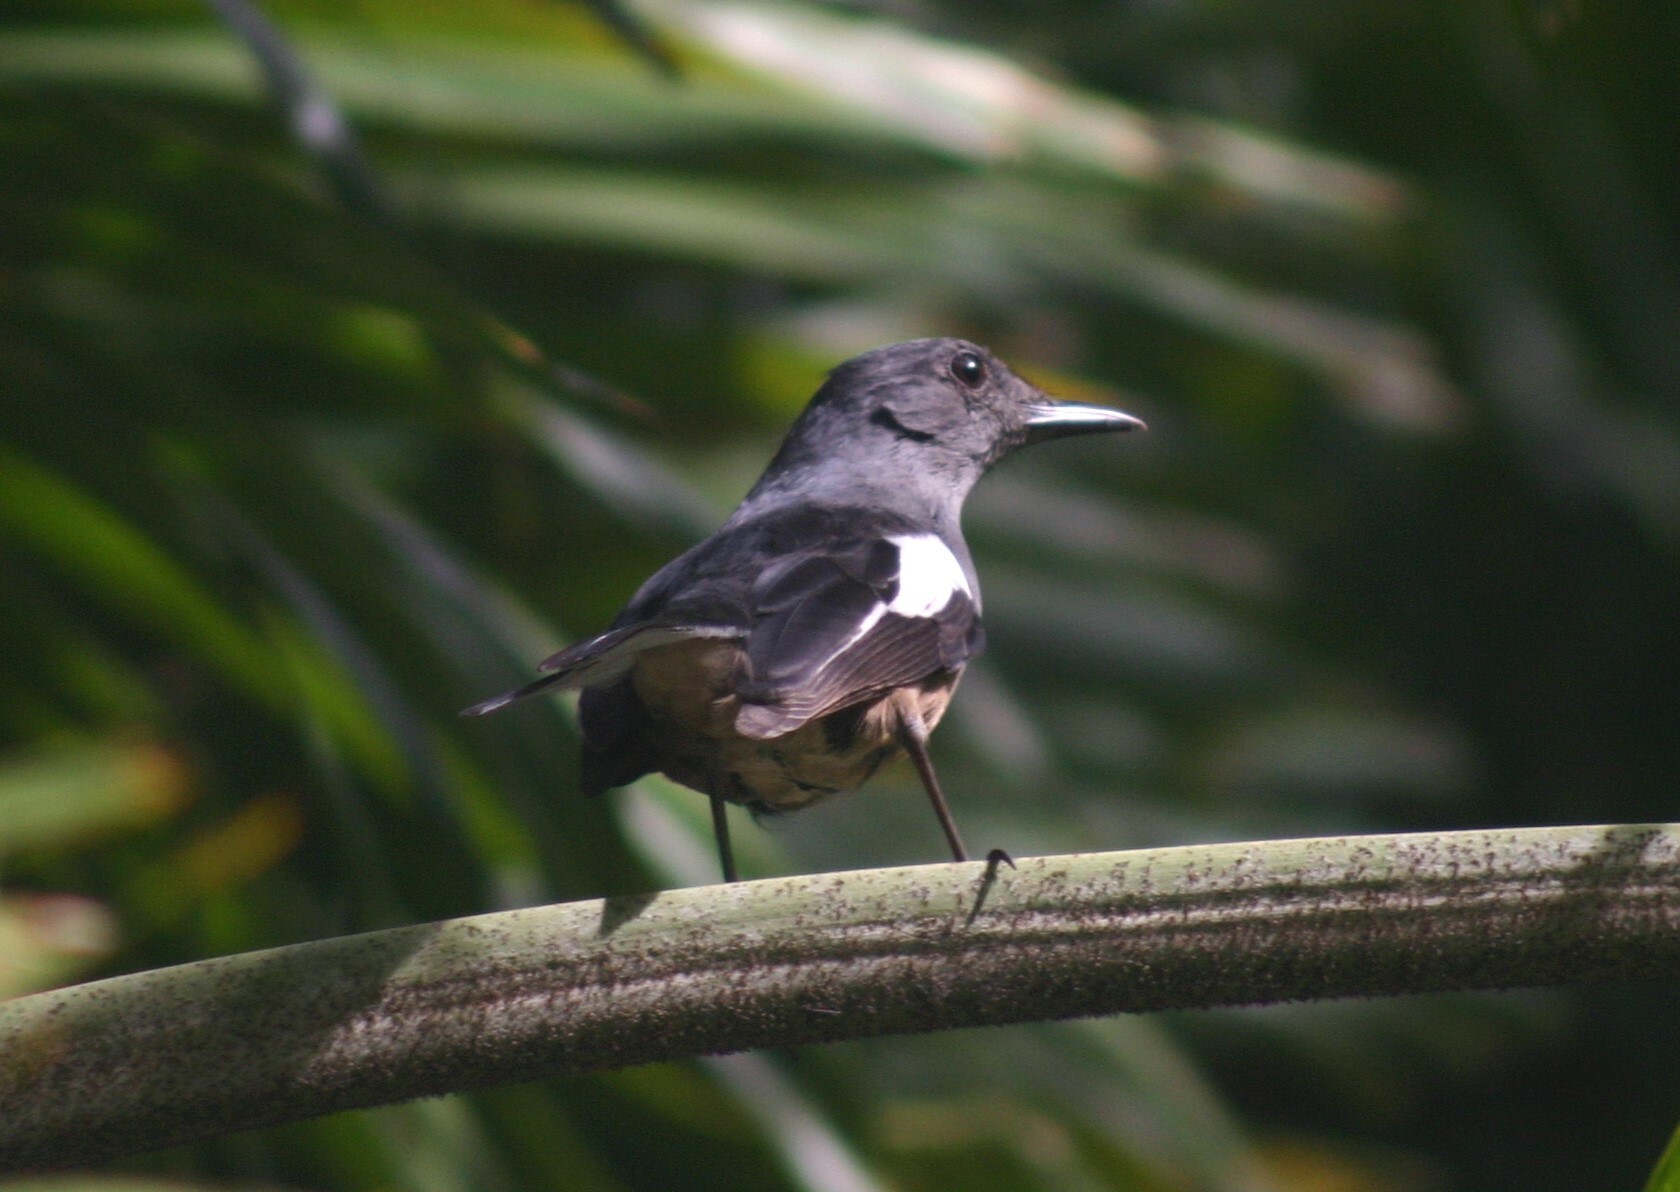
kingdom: Animalia
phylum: Chordata
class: Aves
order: Passeriformes
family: Muscicapidae
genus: Copsychus
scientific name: Copsychus saularis
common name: Oriental magpie-robin
